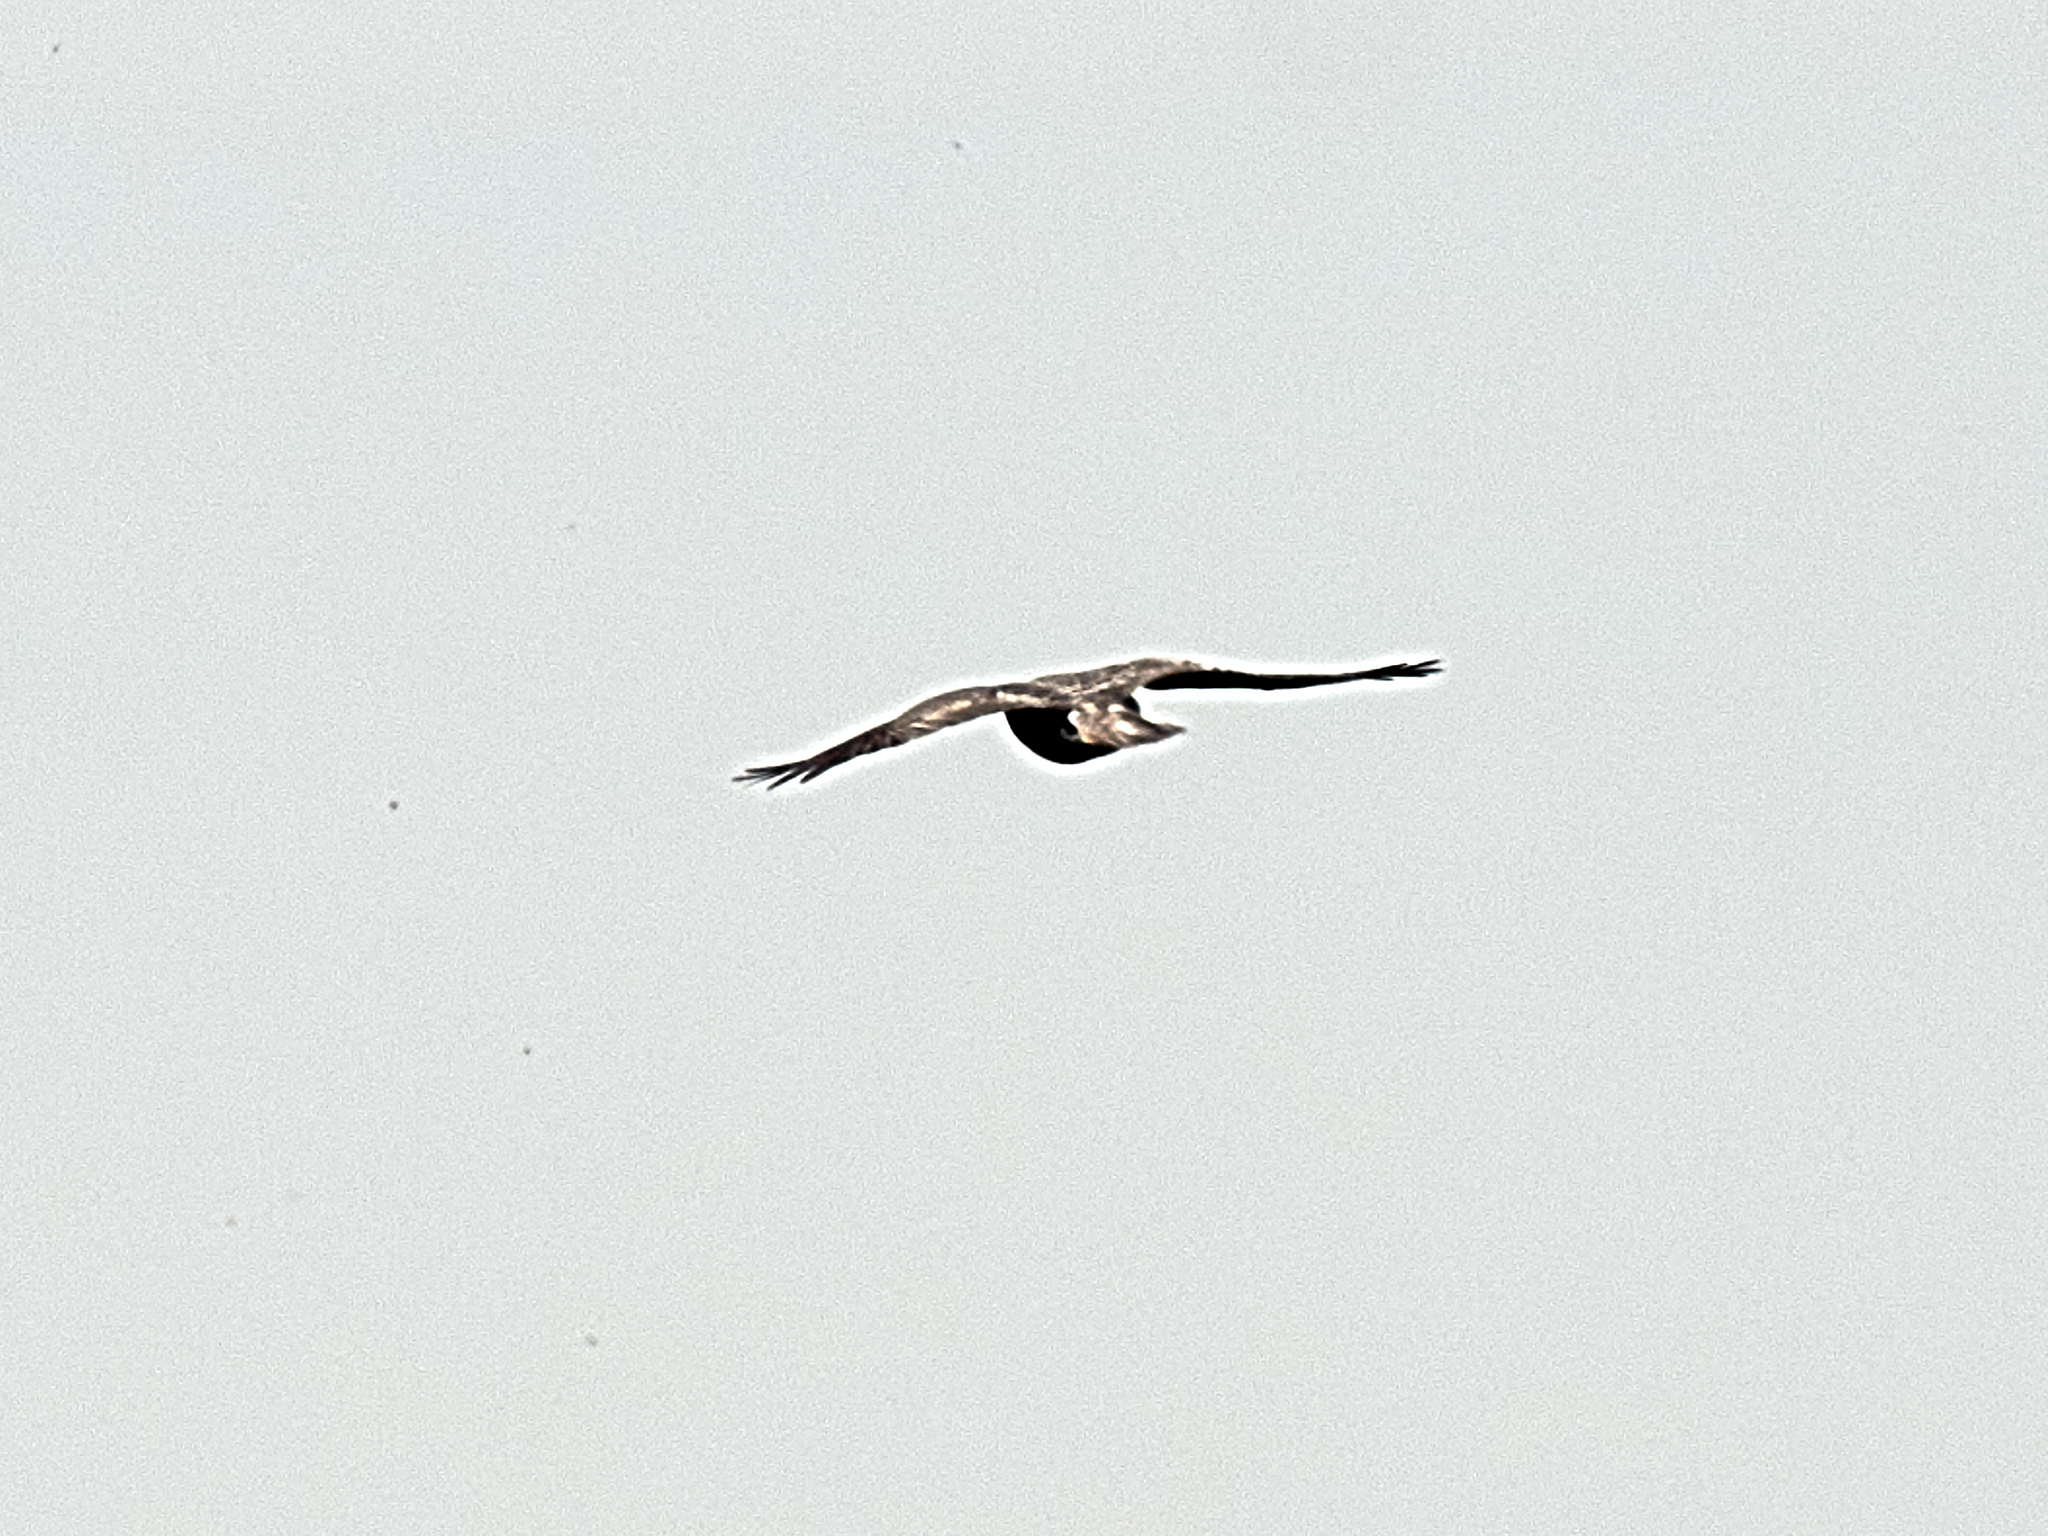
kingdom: Animalia
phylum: Chordata
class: Aves
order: Accipitriformes
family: Accipitridae
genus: Accipiter
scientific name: Accipiter nisus
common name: Eurasian sparrowhawk
